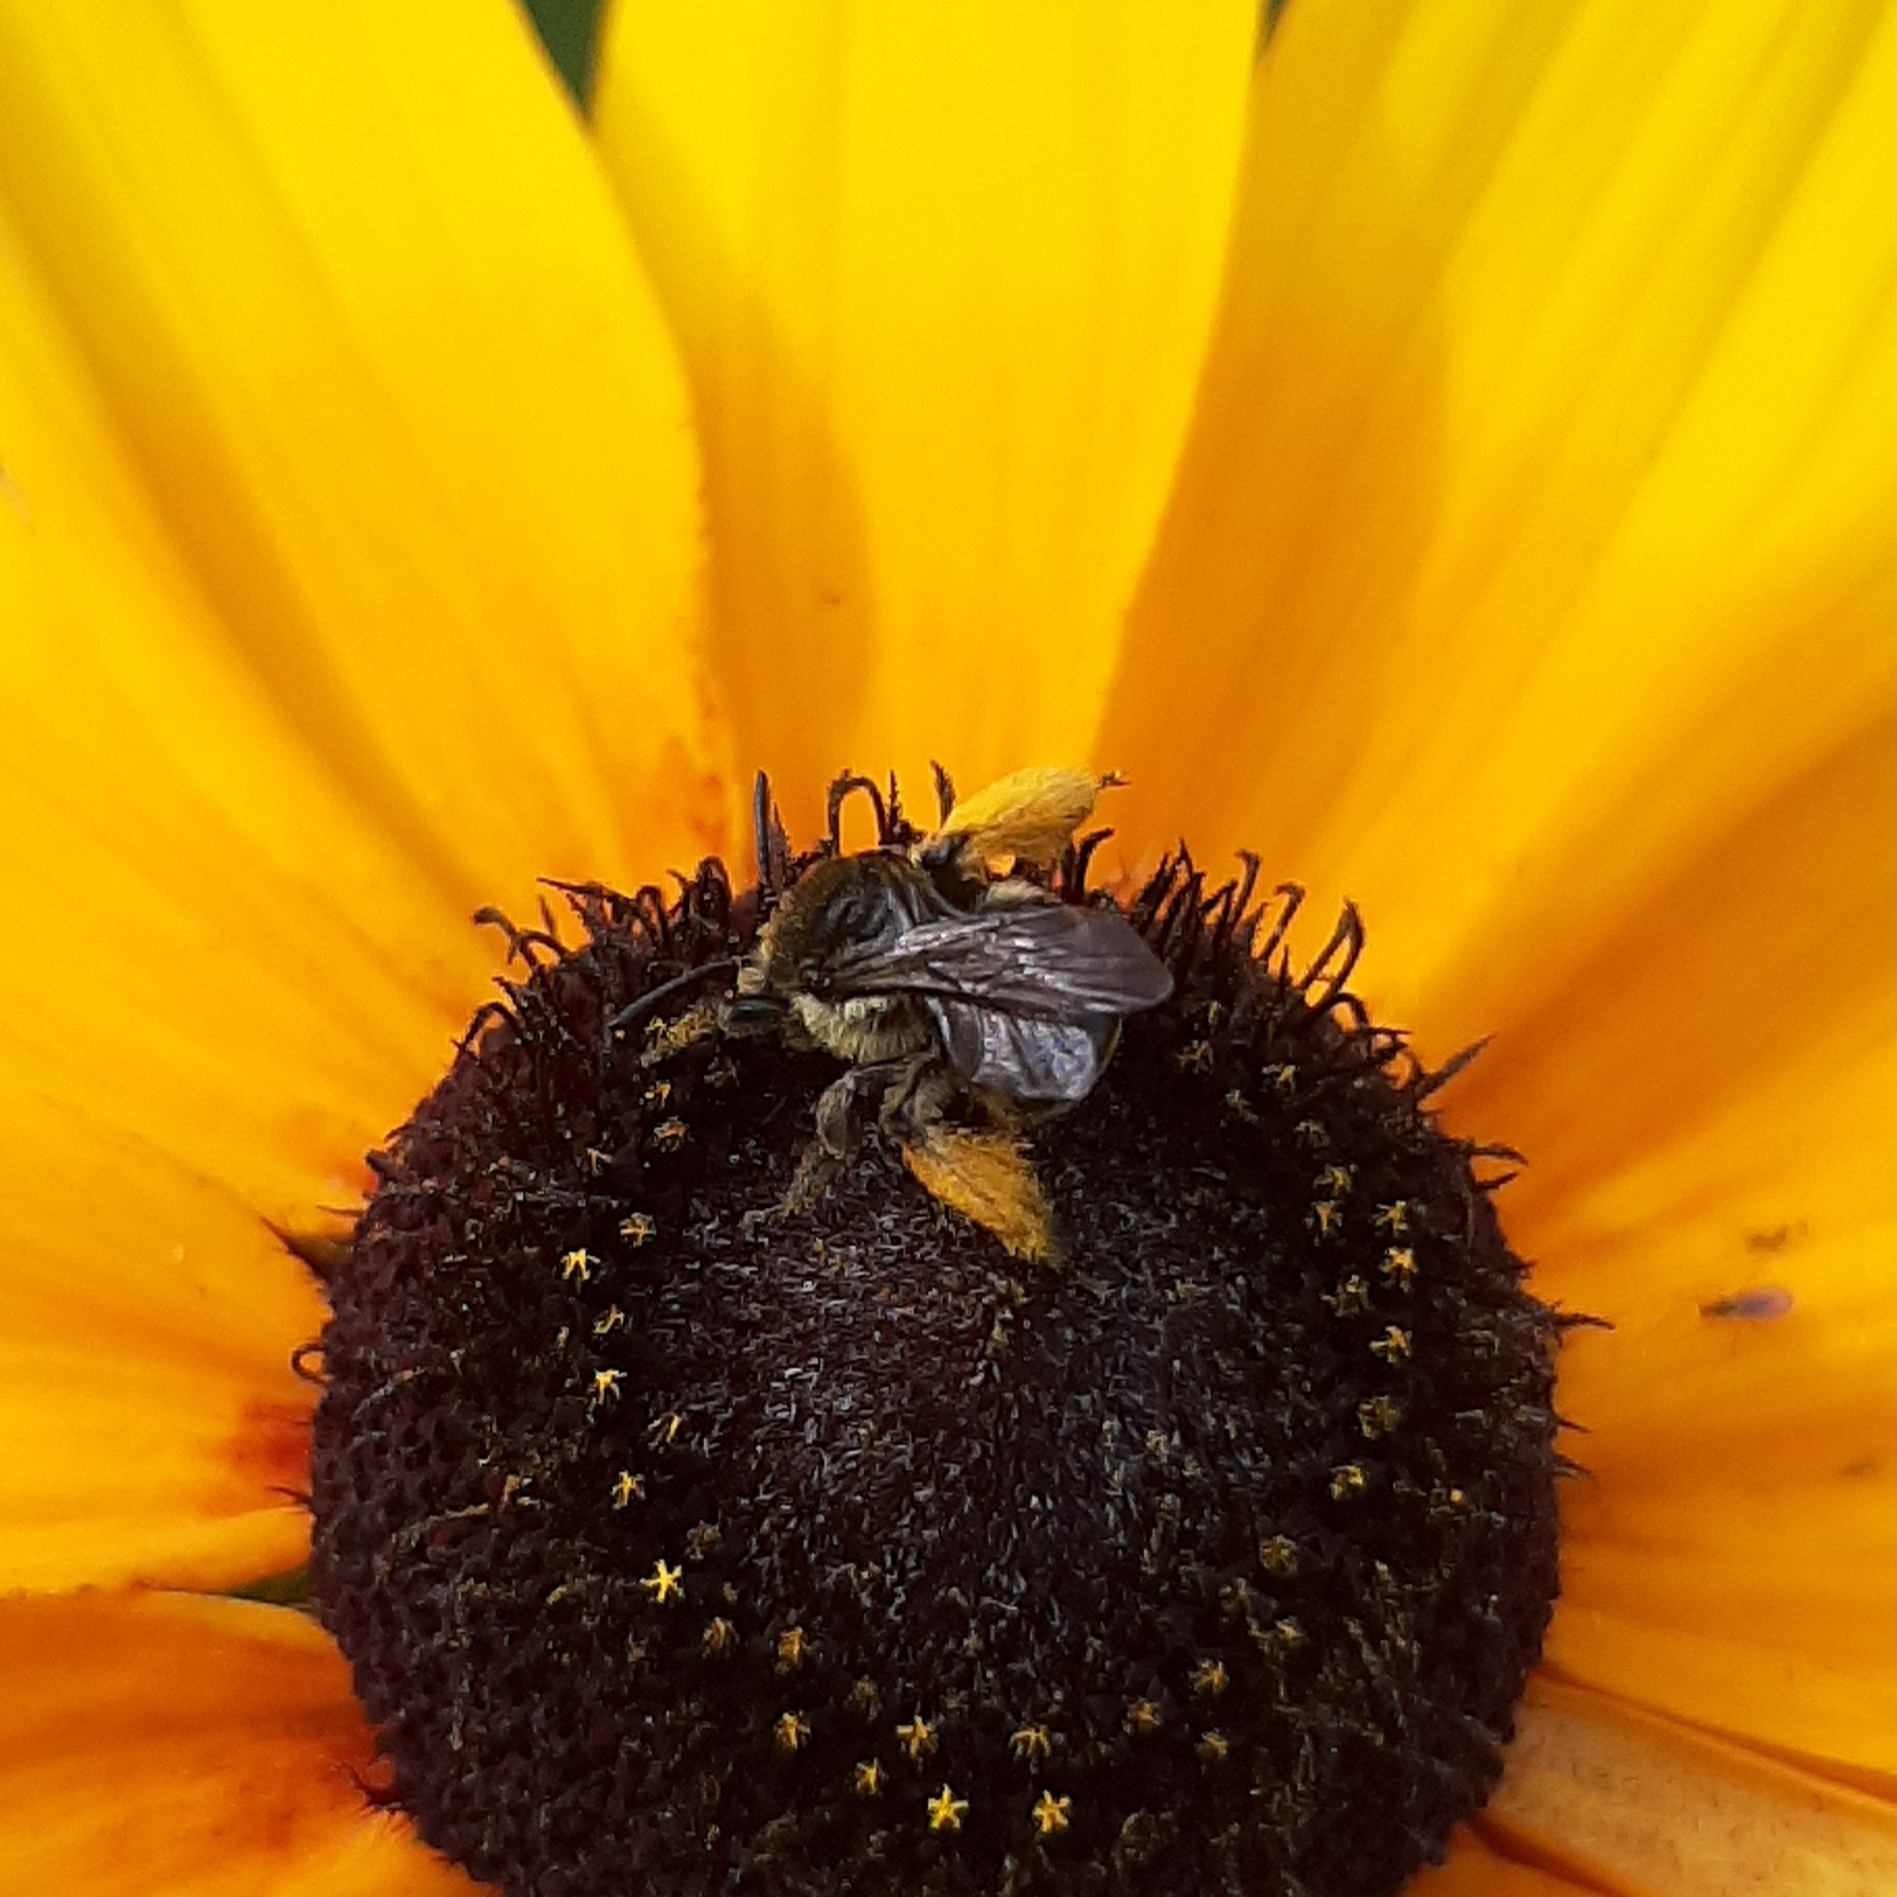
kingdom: Animalia
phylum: Arthropoda
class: Insecta
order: Hymenoptera
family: Apidae
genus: Melissodes
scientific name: Melissodes illatus
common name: Valiant long-horned bee
